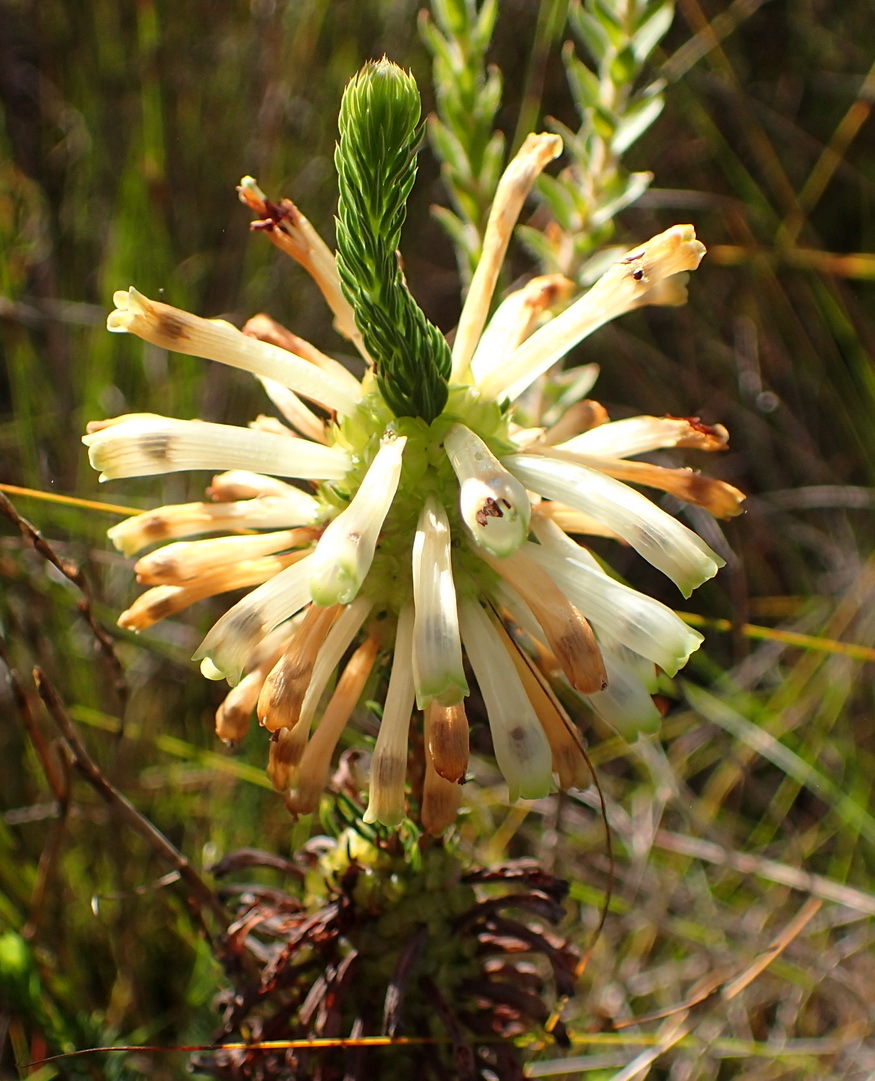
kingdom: Plantae
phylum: Tracheophyta
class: Magnoliopsida
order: Ericales
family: Ericaceae
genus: Erica
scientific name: Erica sessiliflora
